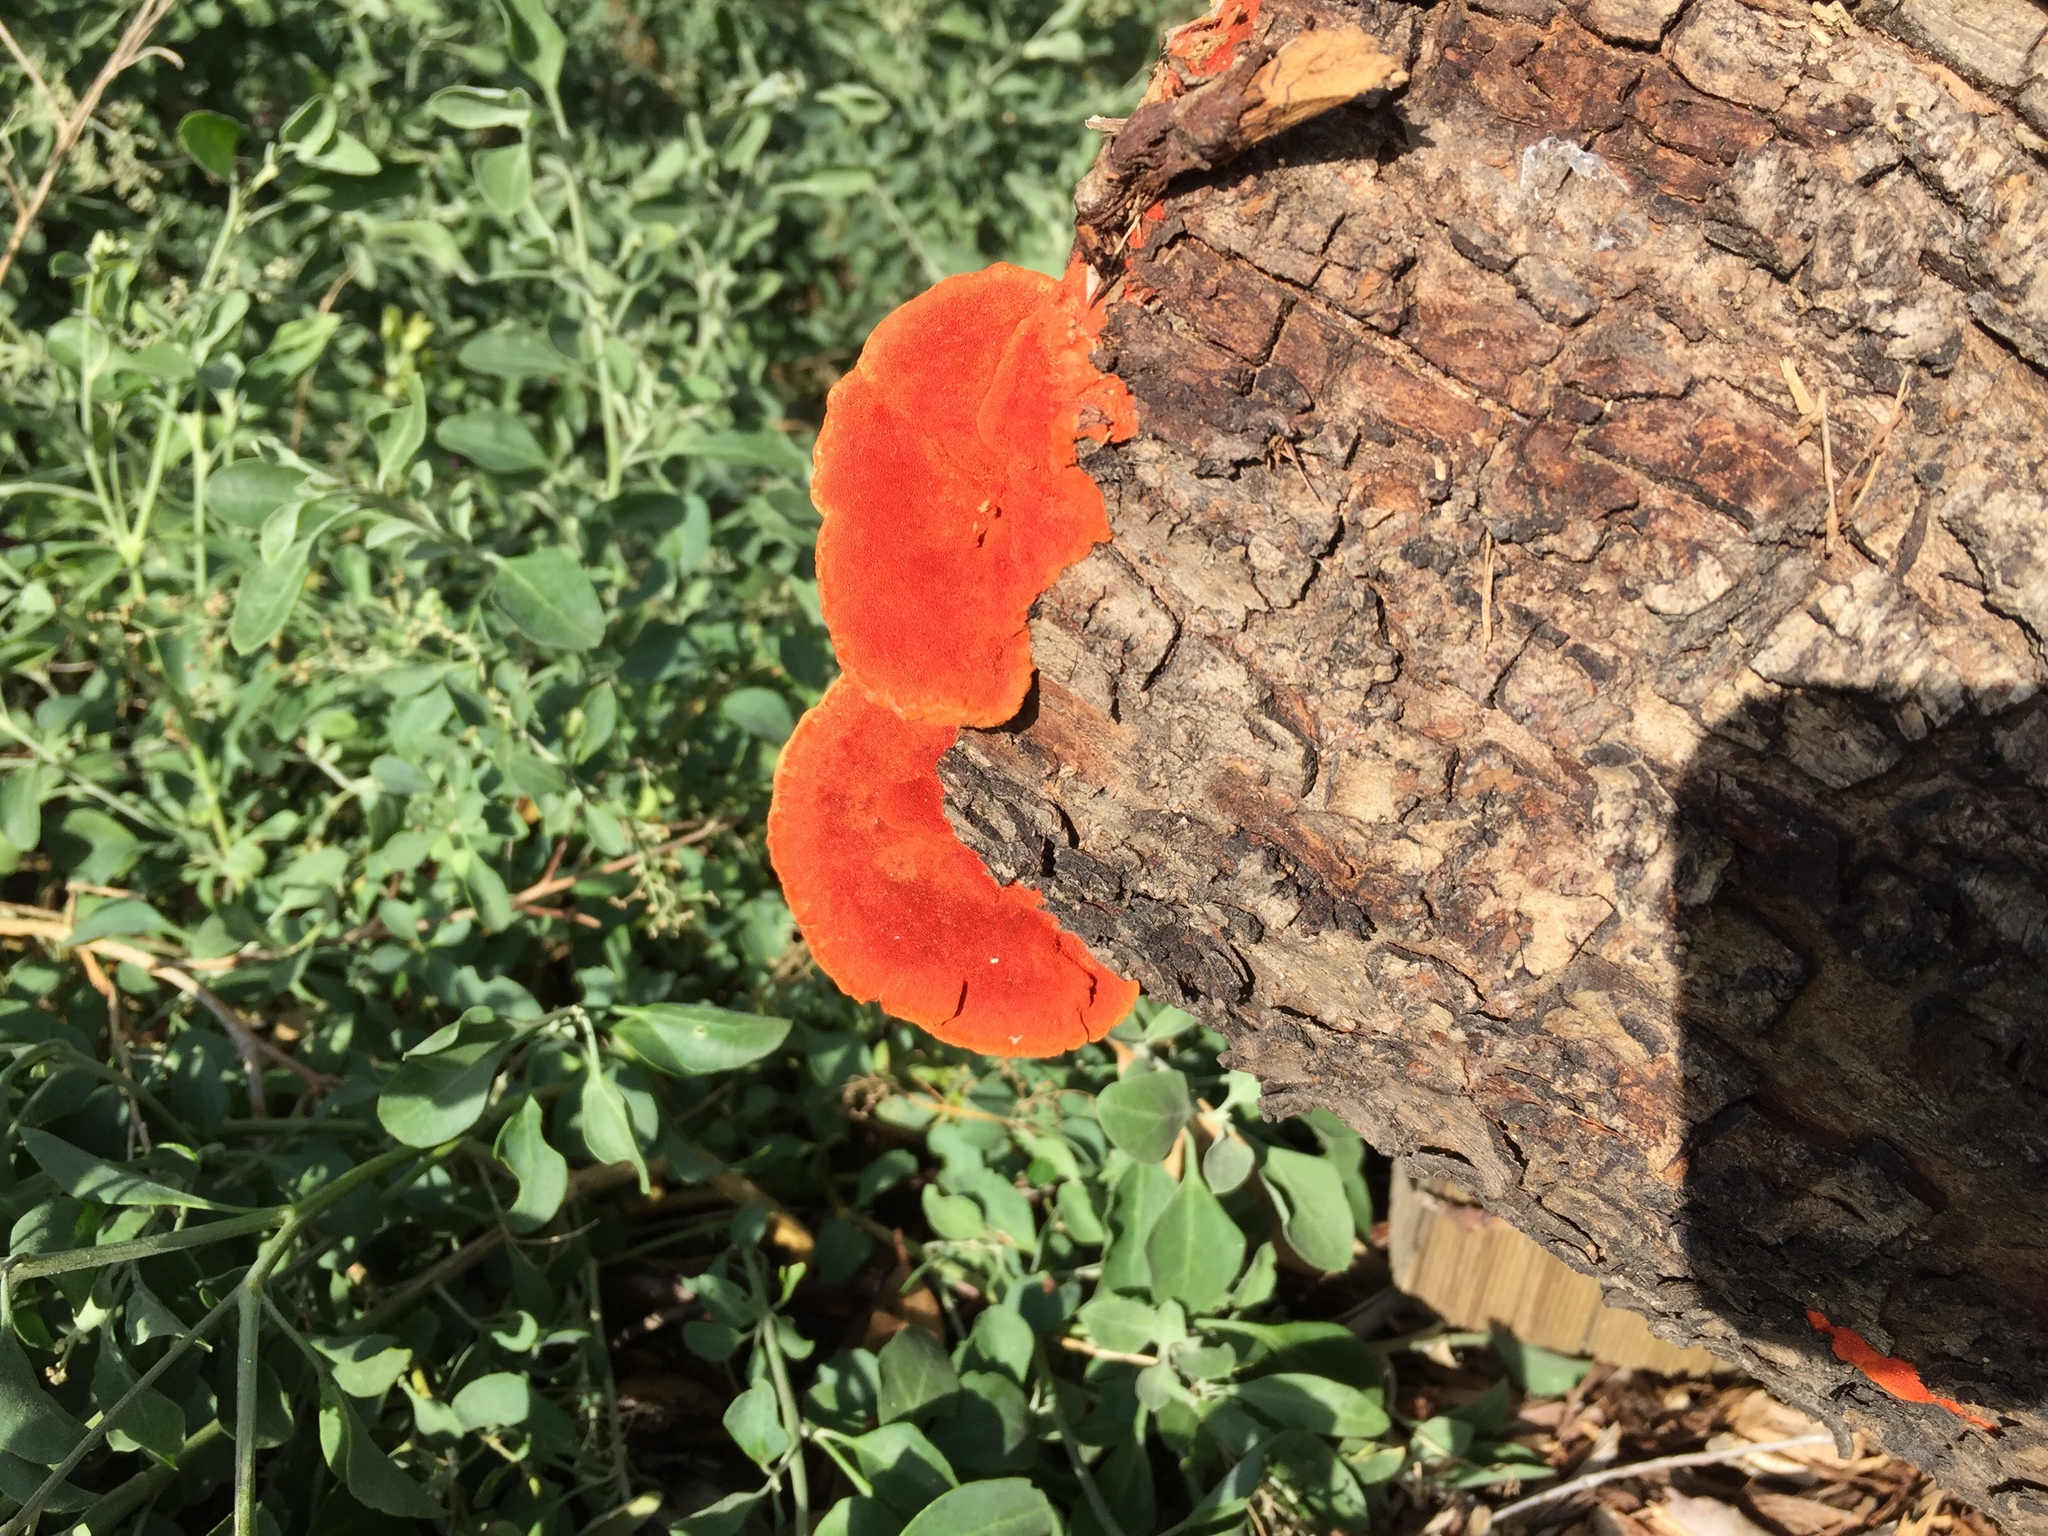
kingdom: Fungi
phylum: Basidiomycota
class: Agaricomycetes
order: Polyporales
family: Polyporaceae
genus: Trametes
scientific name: Trametes coccinea
